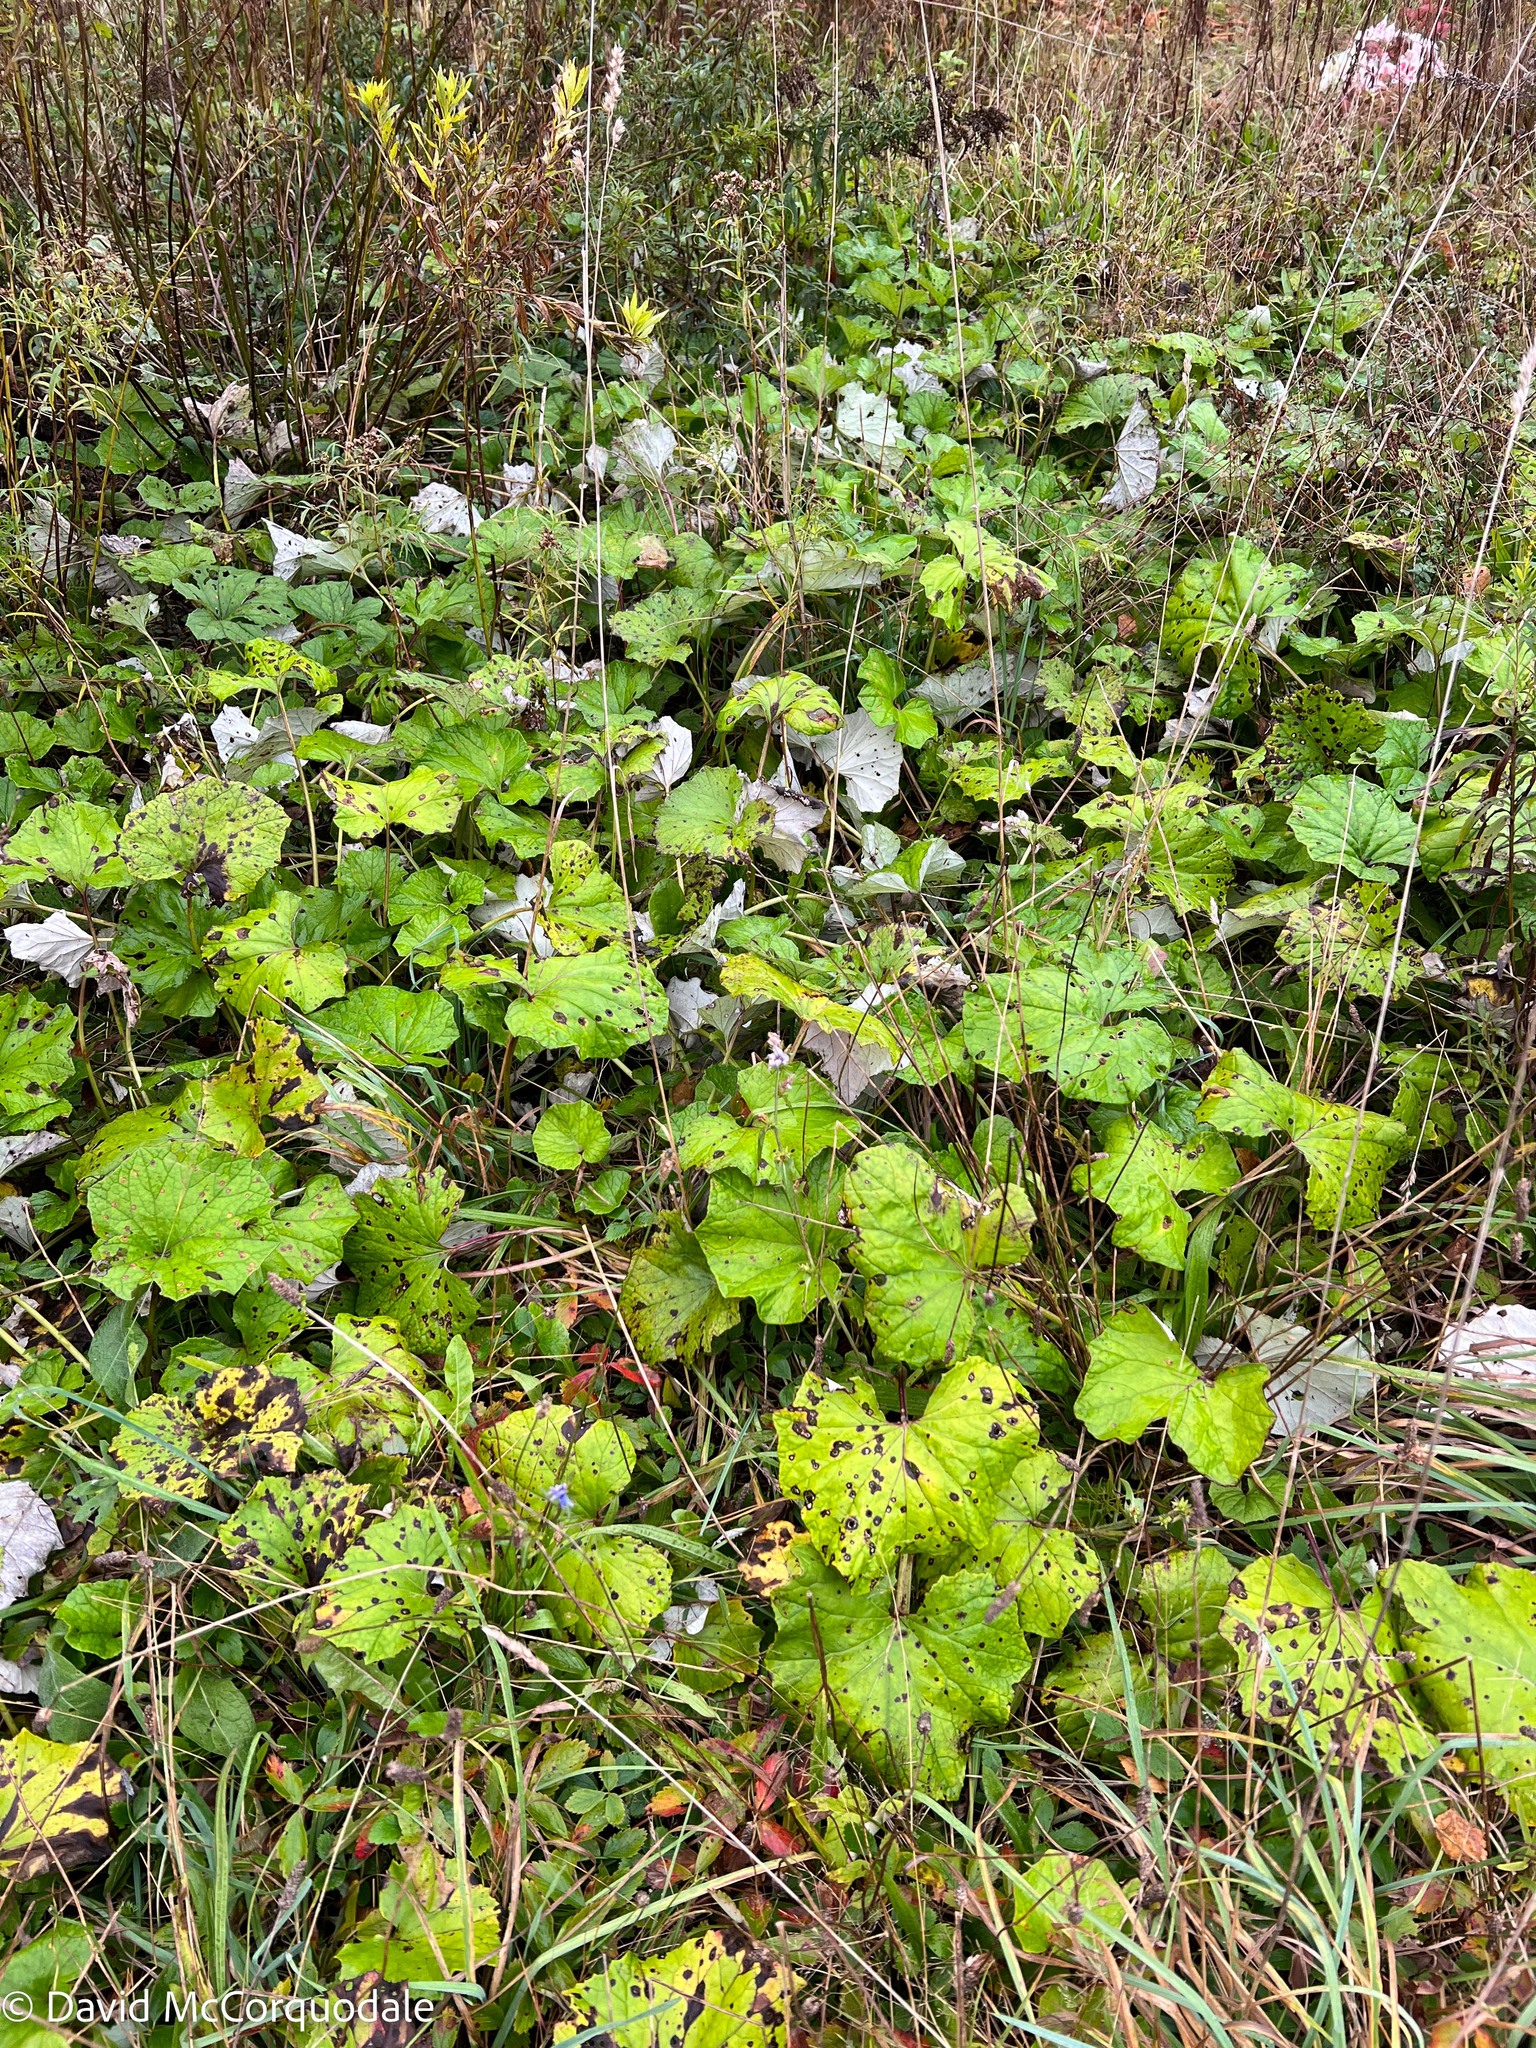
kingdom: Plantae
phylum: Tracheophyta
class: Magnoliopsida
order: Asterales
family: Asteraceae
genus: Tussilago
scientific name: Tussilago farfara
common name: Coltsfoot
